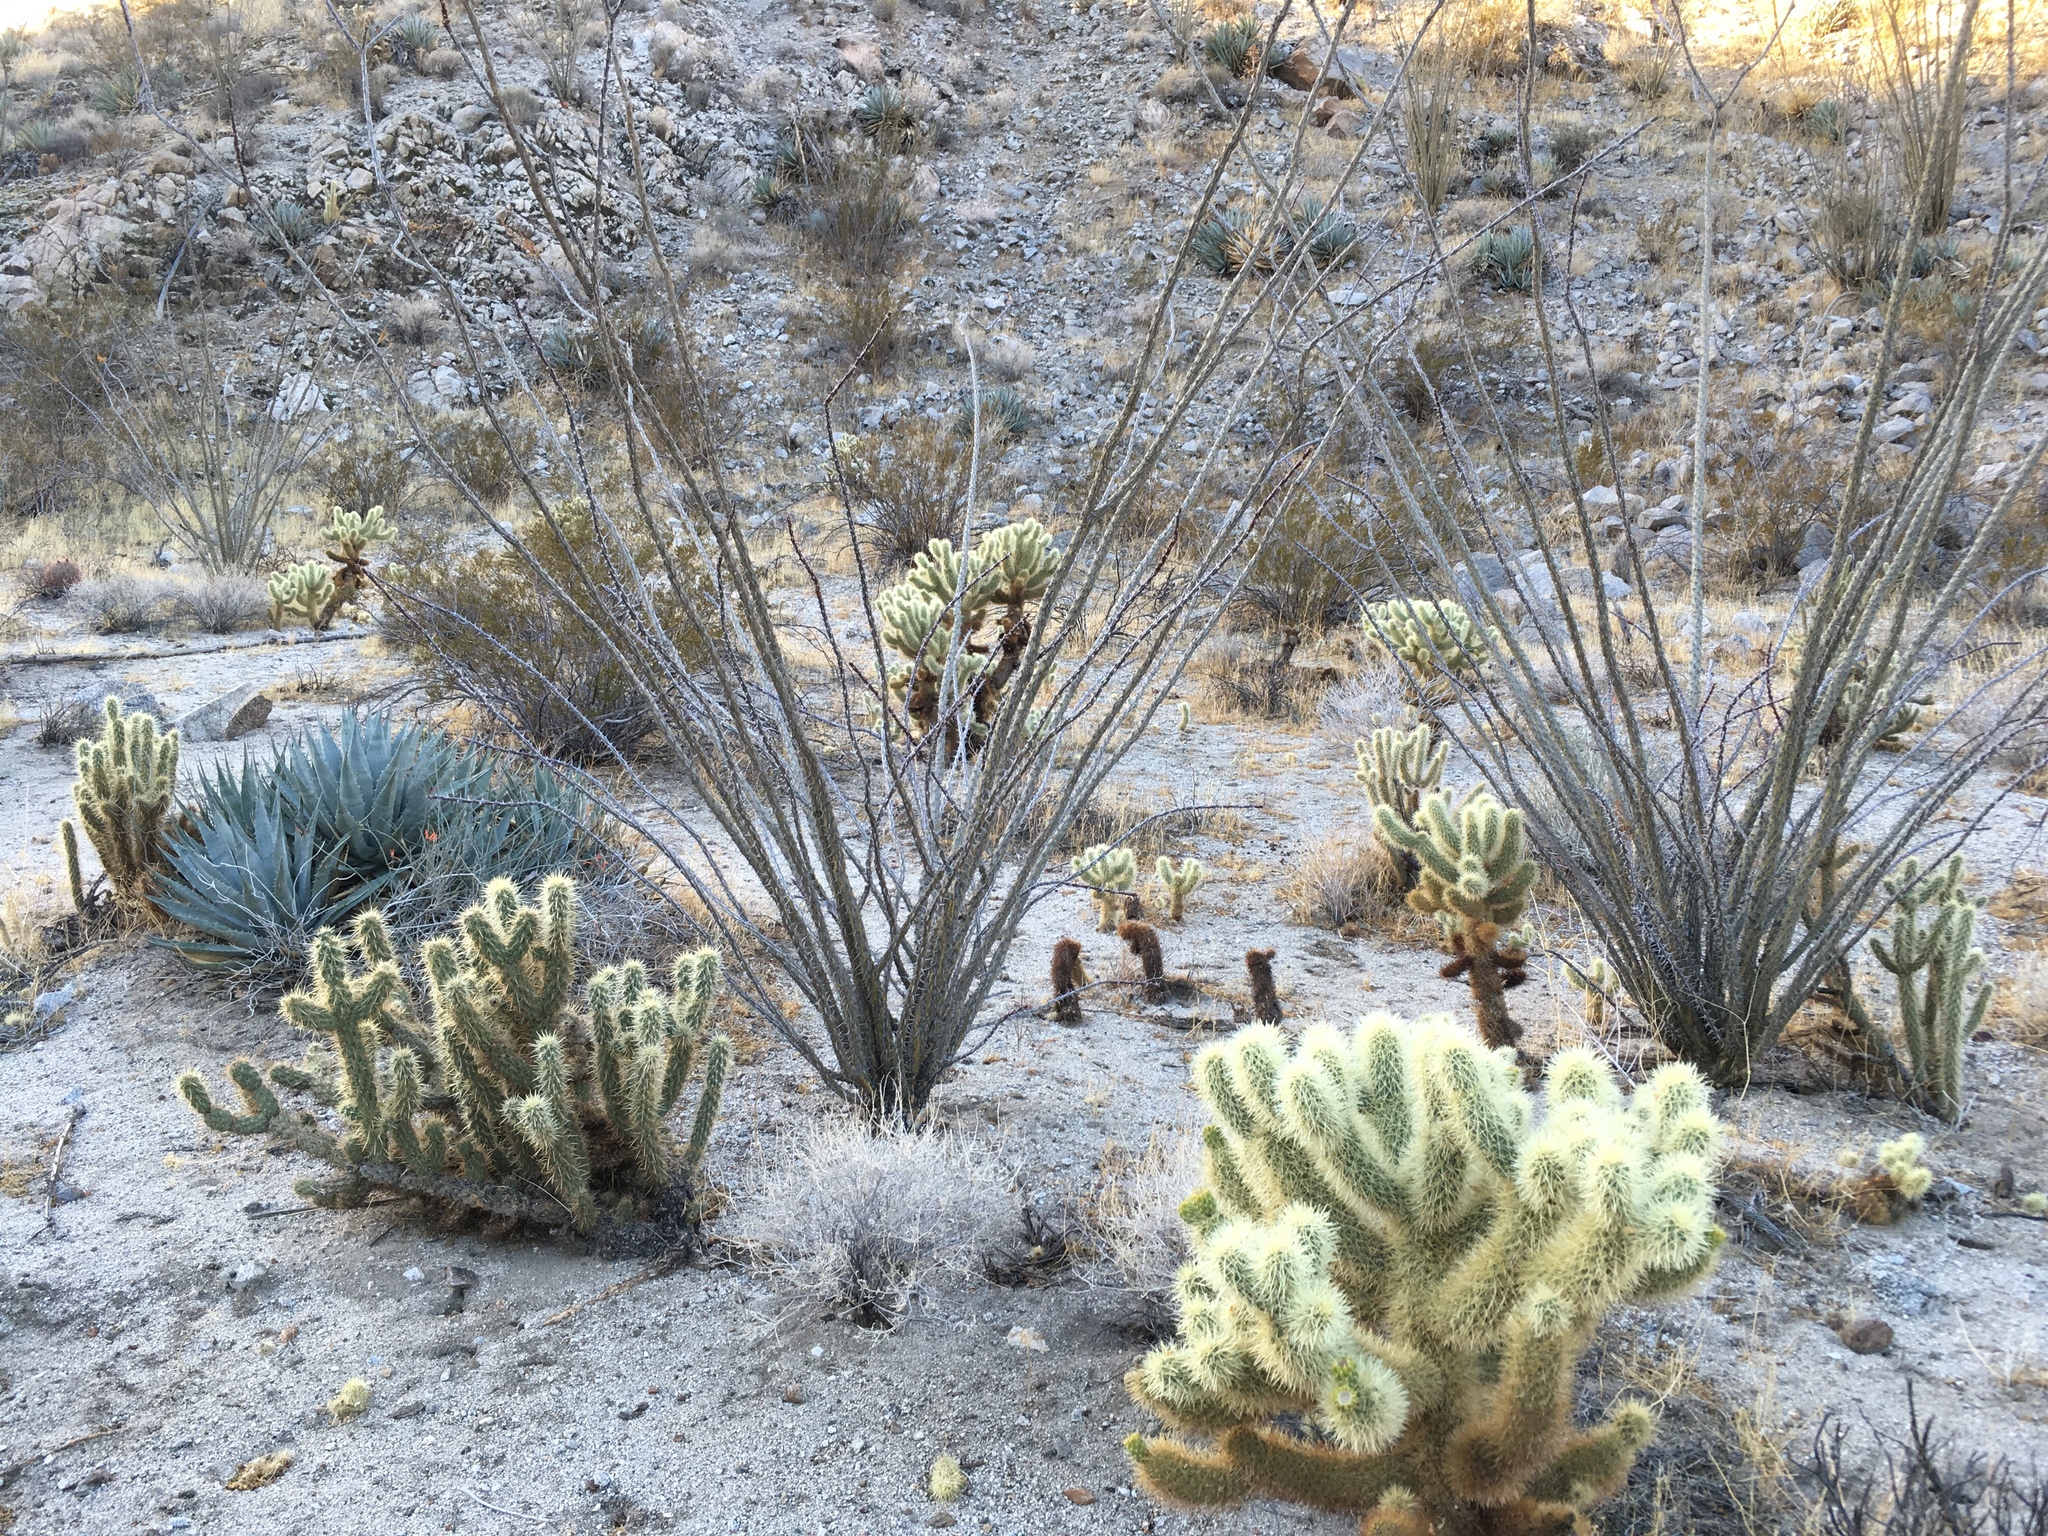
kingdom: Plantae
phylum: Tracheophyta
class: Magnoliopsida
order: Caryophyllales
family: Cactaceae
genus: Cylindropuntia
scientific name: Cylindropuntia fosbergii
